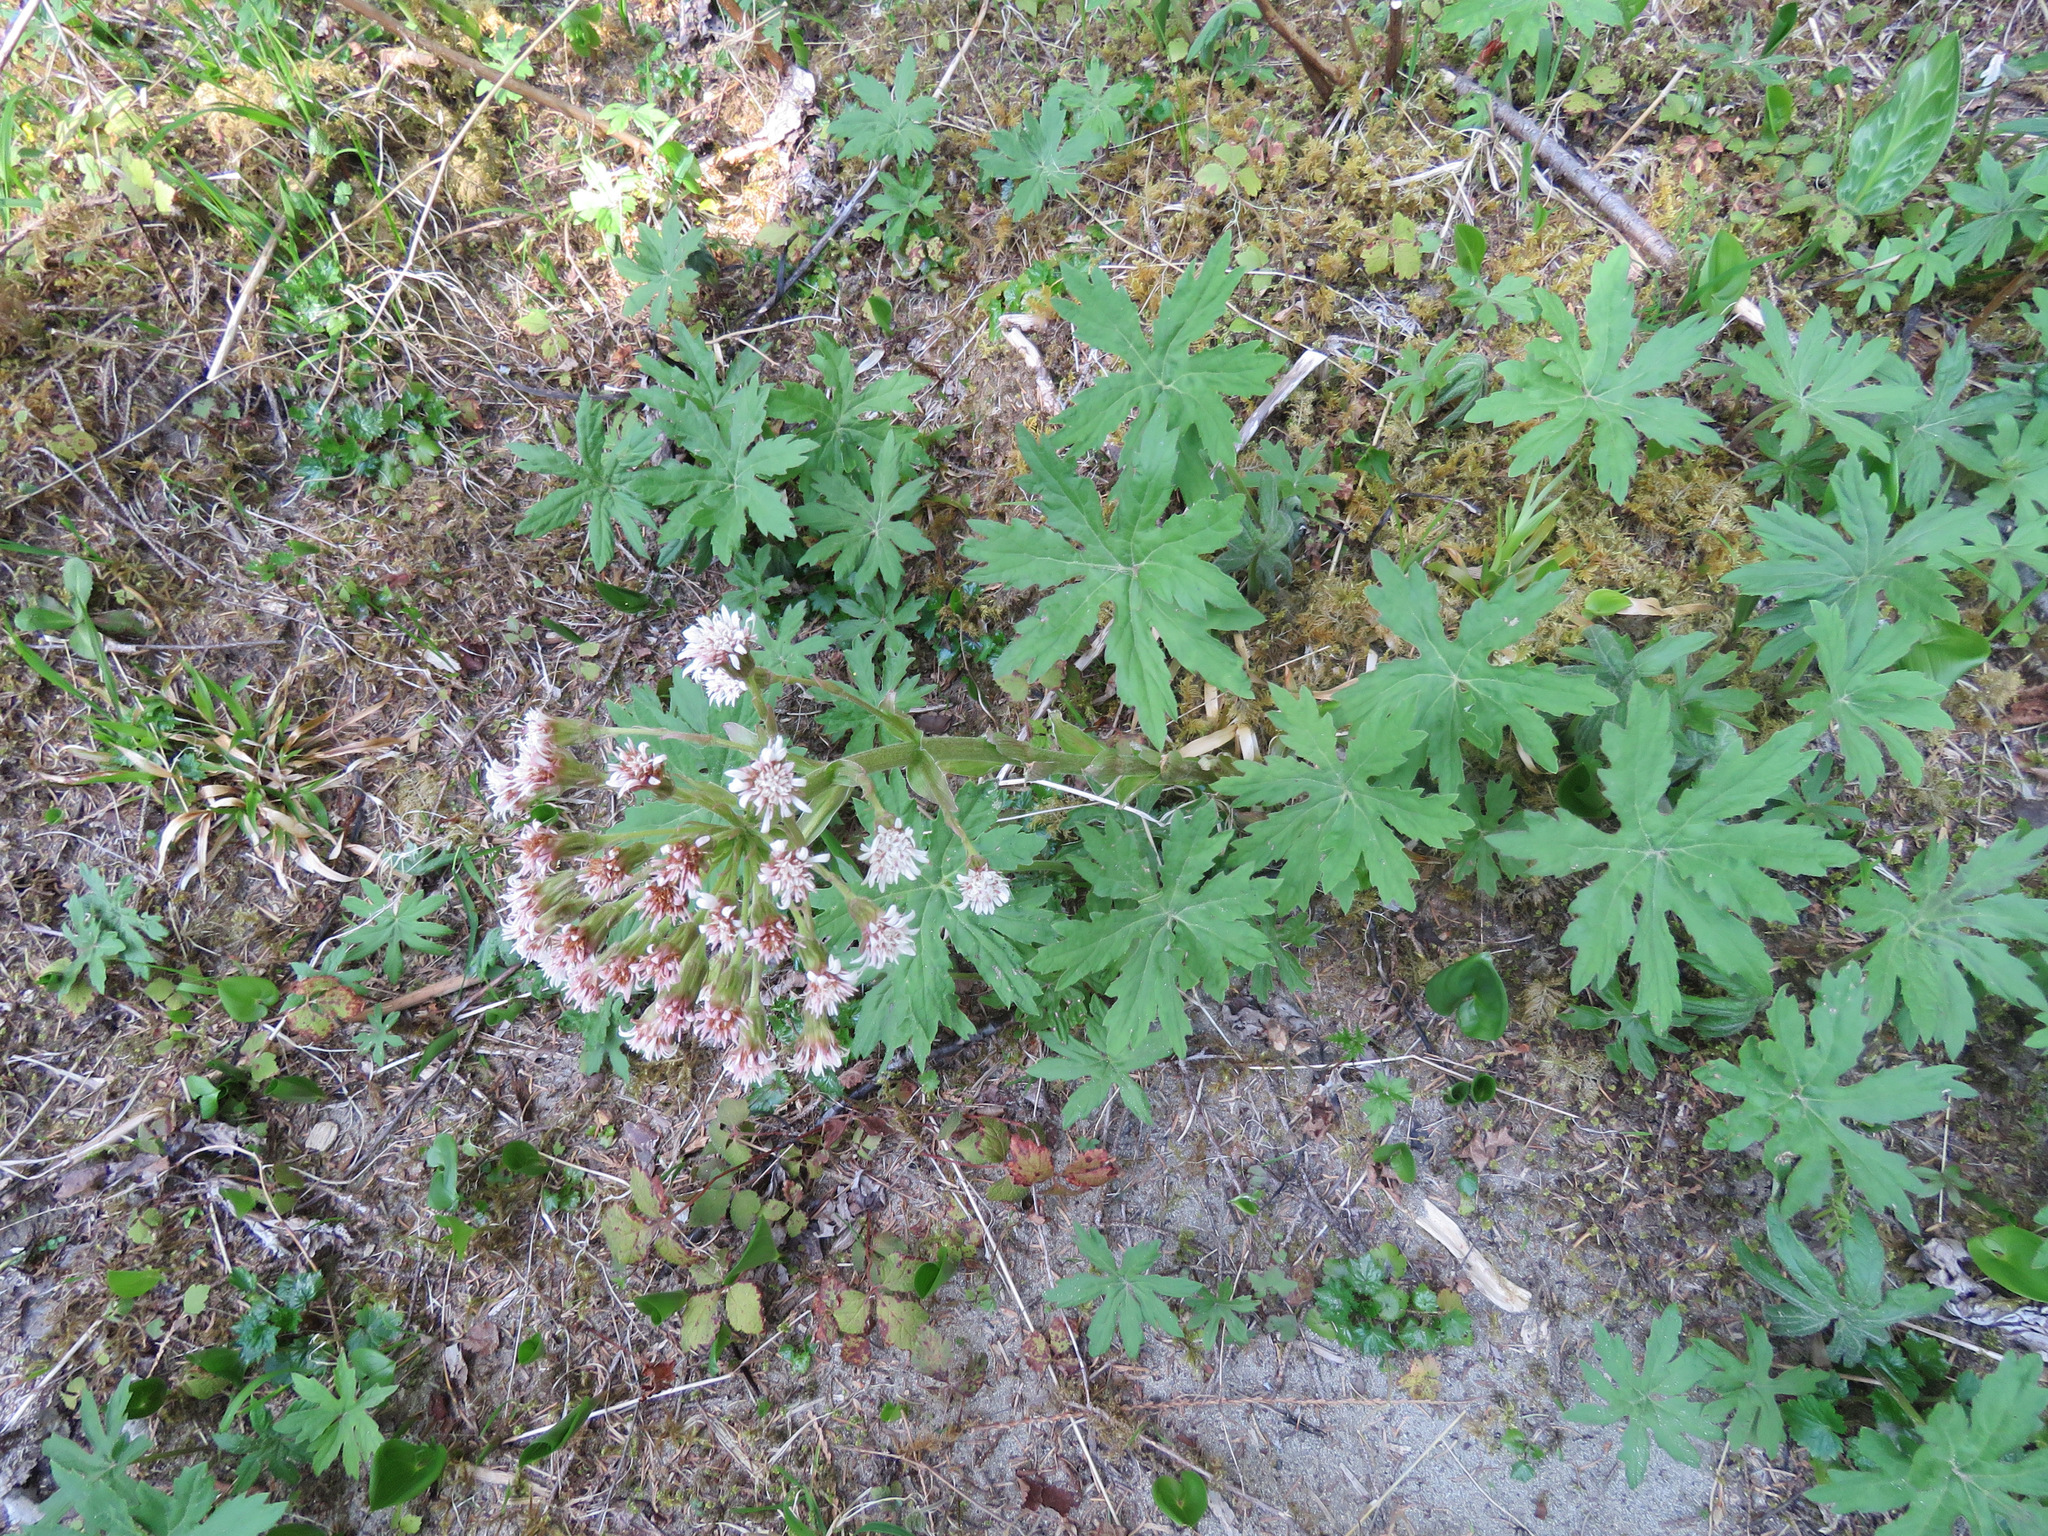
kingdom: Plantae
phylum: Tracheophyta
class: Magnoliopsida
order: Asterales
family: Asteraceae
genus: Petasites
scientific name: Petasites frigidus
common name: Arctic butterbur
